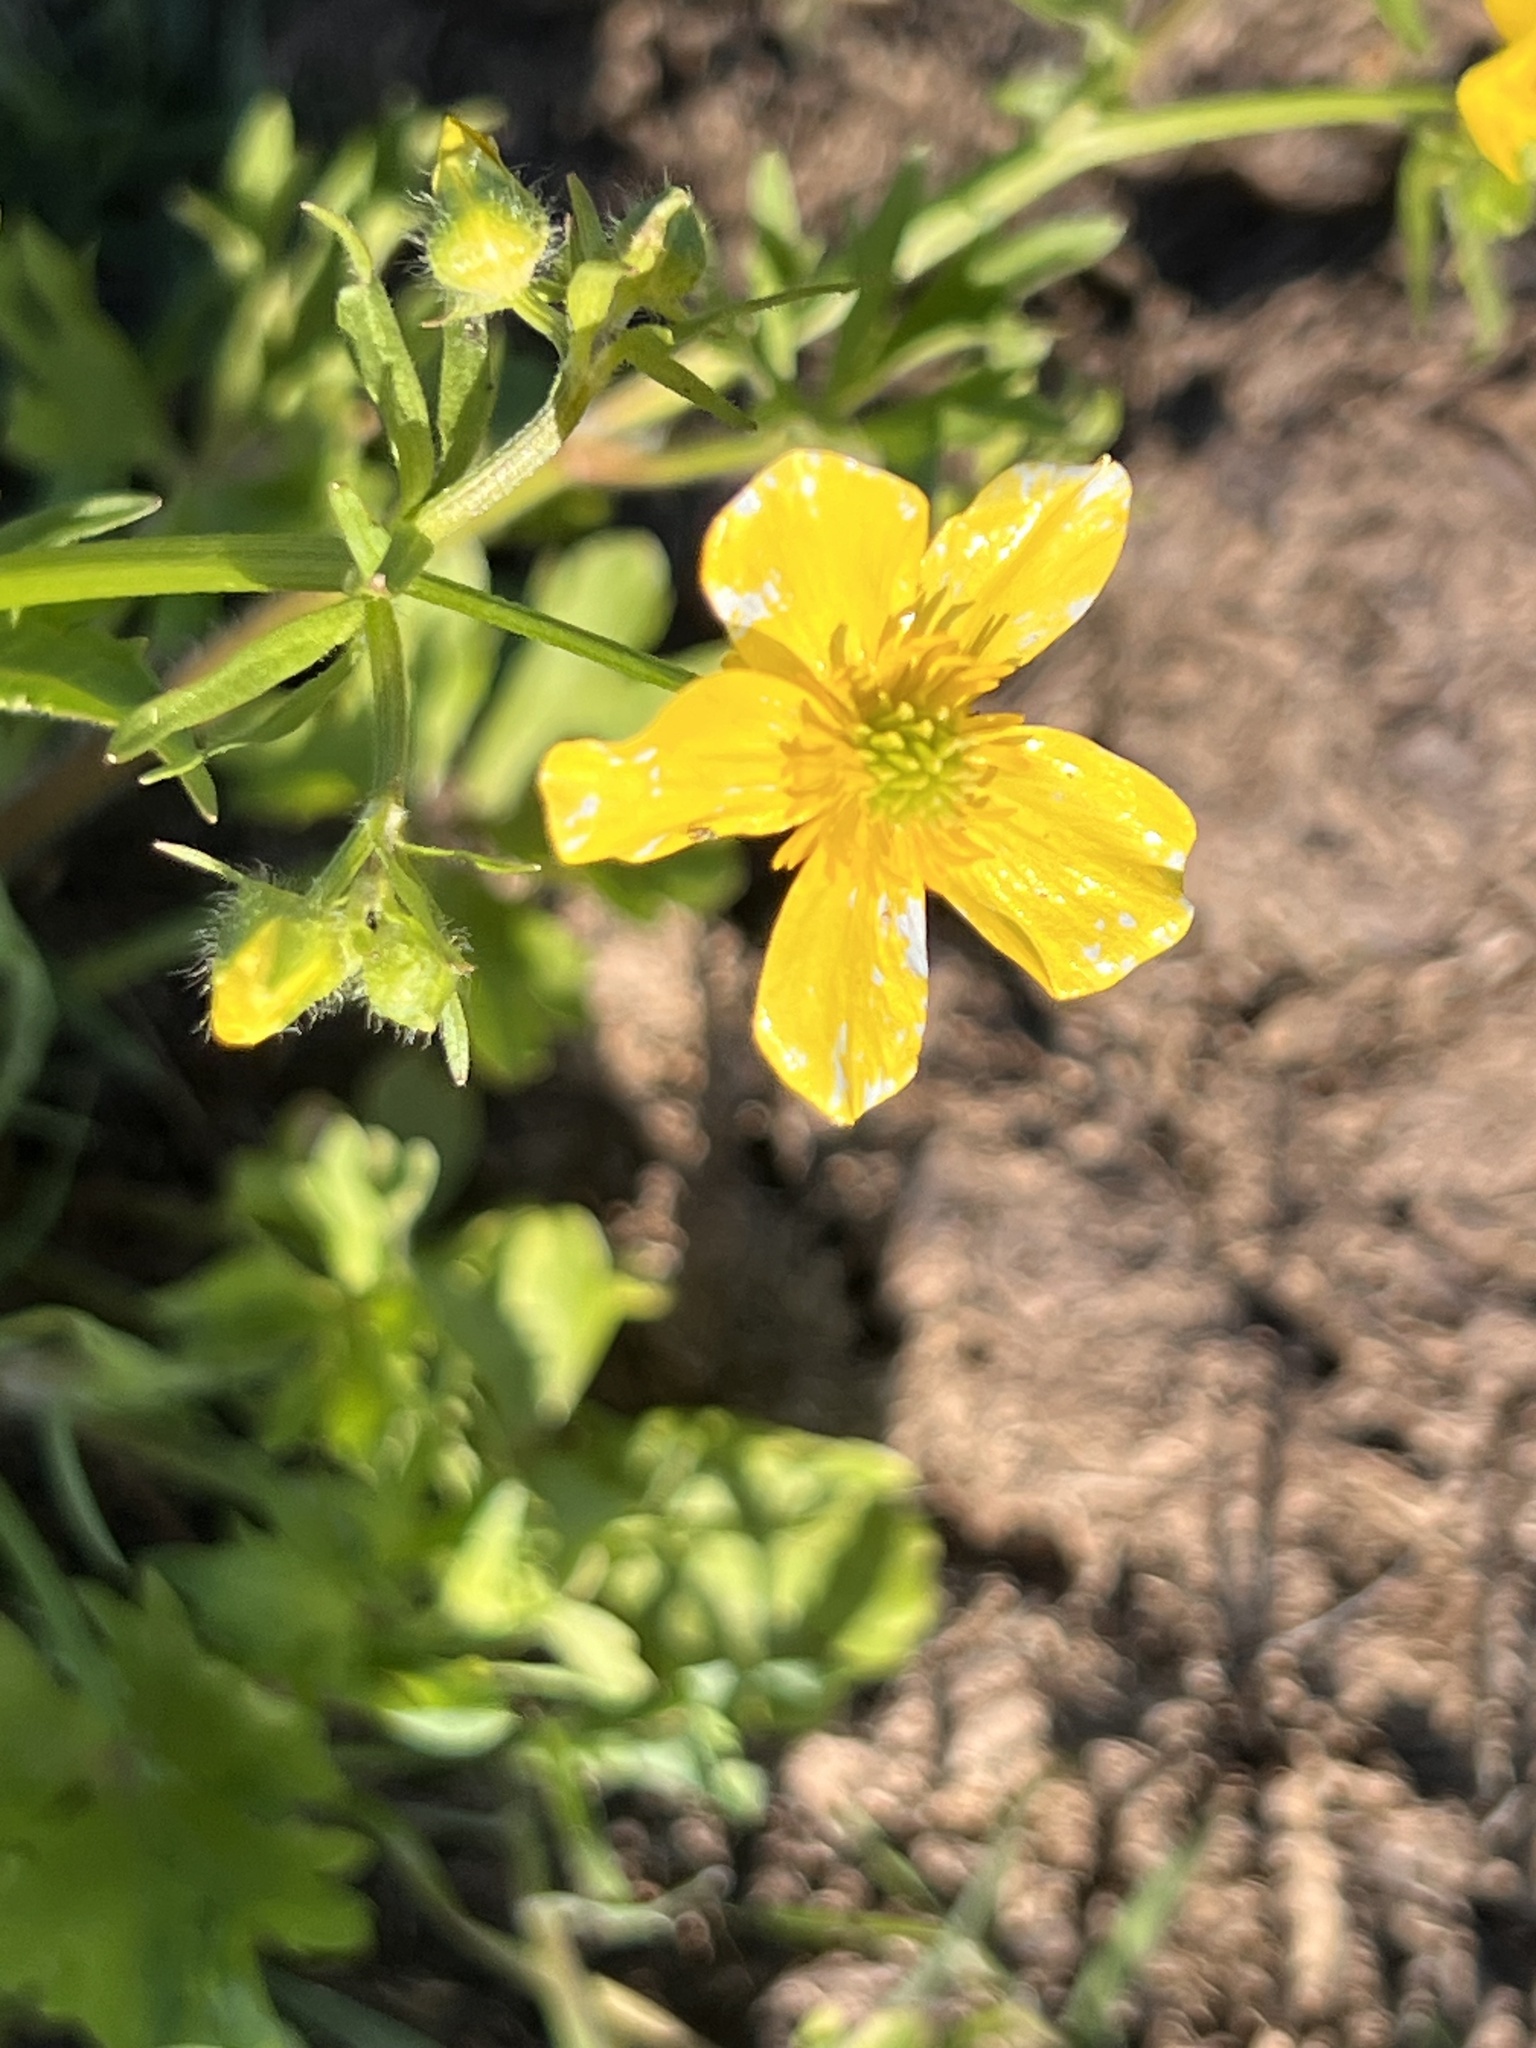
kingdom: Plantae
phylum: Tracheophyta
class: Magnoliopsida
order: Ranunculales
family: Ranunculaceae
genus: Ranunculus
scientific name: Ranunculus sardous
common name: Hairy buttercup
